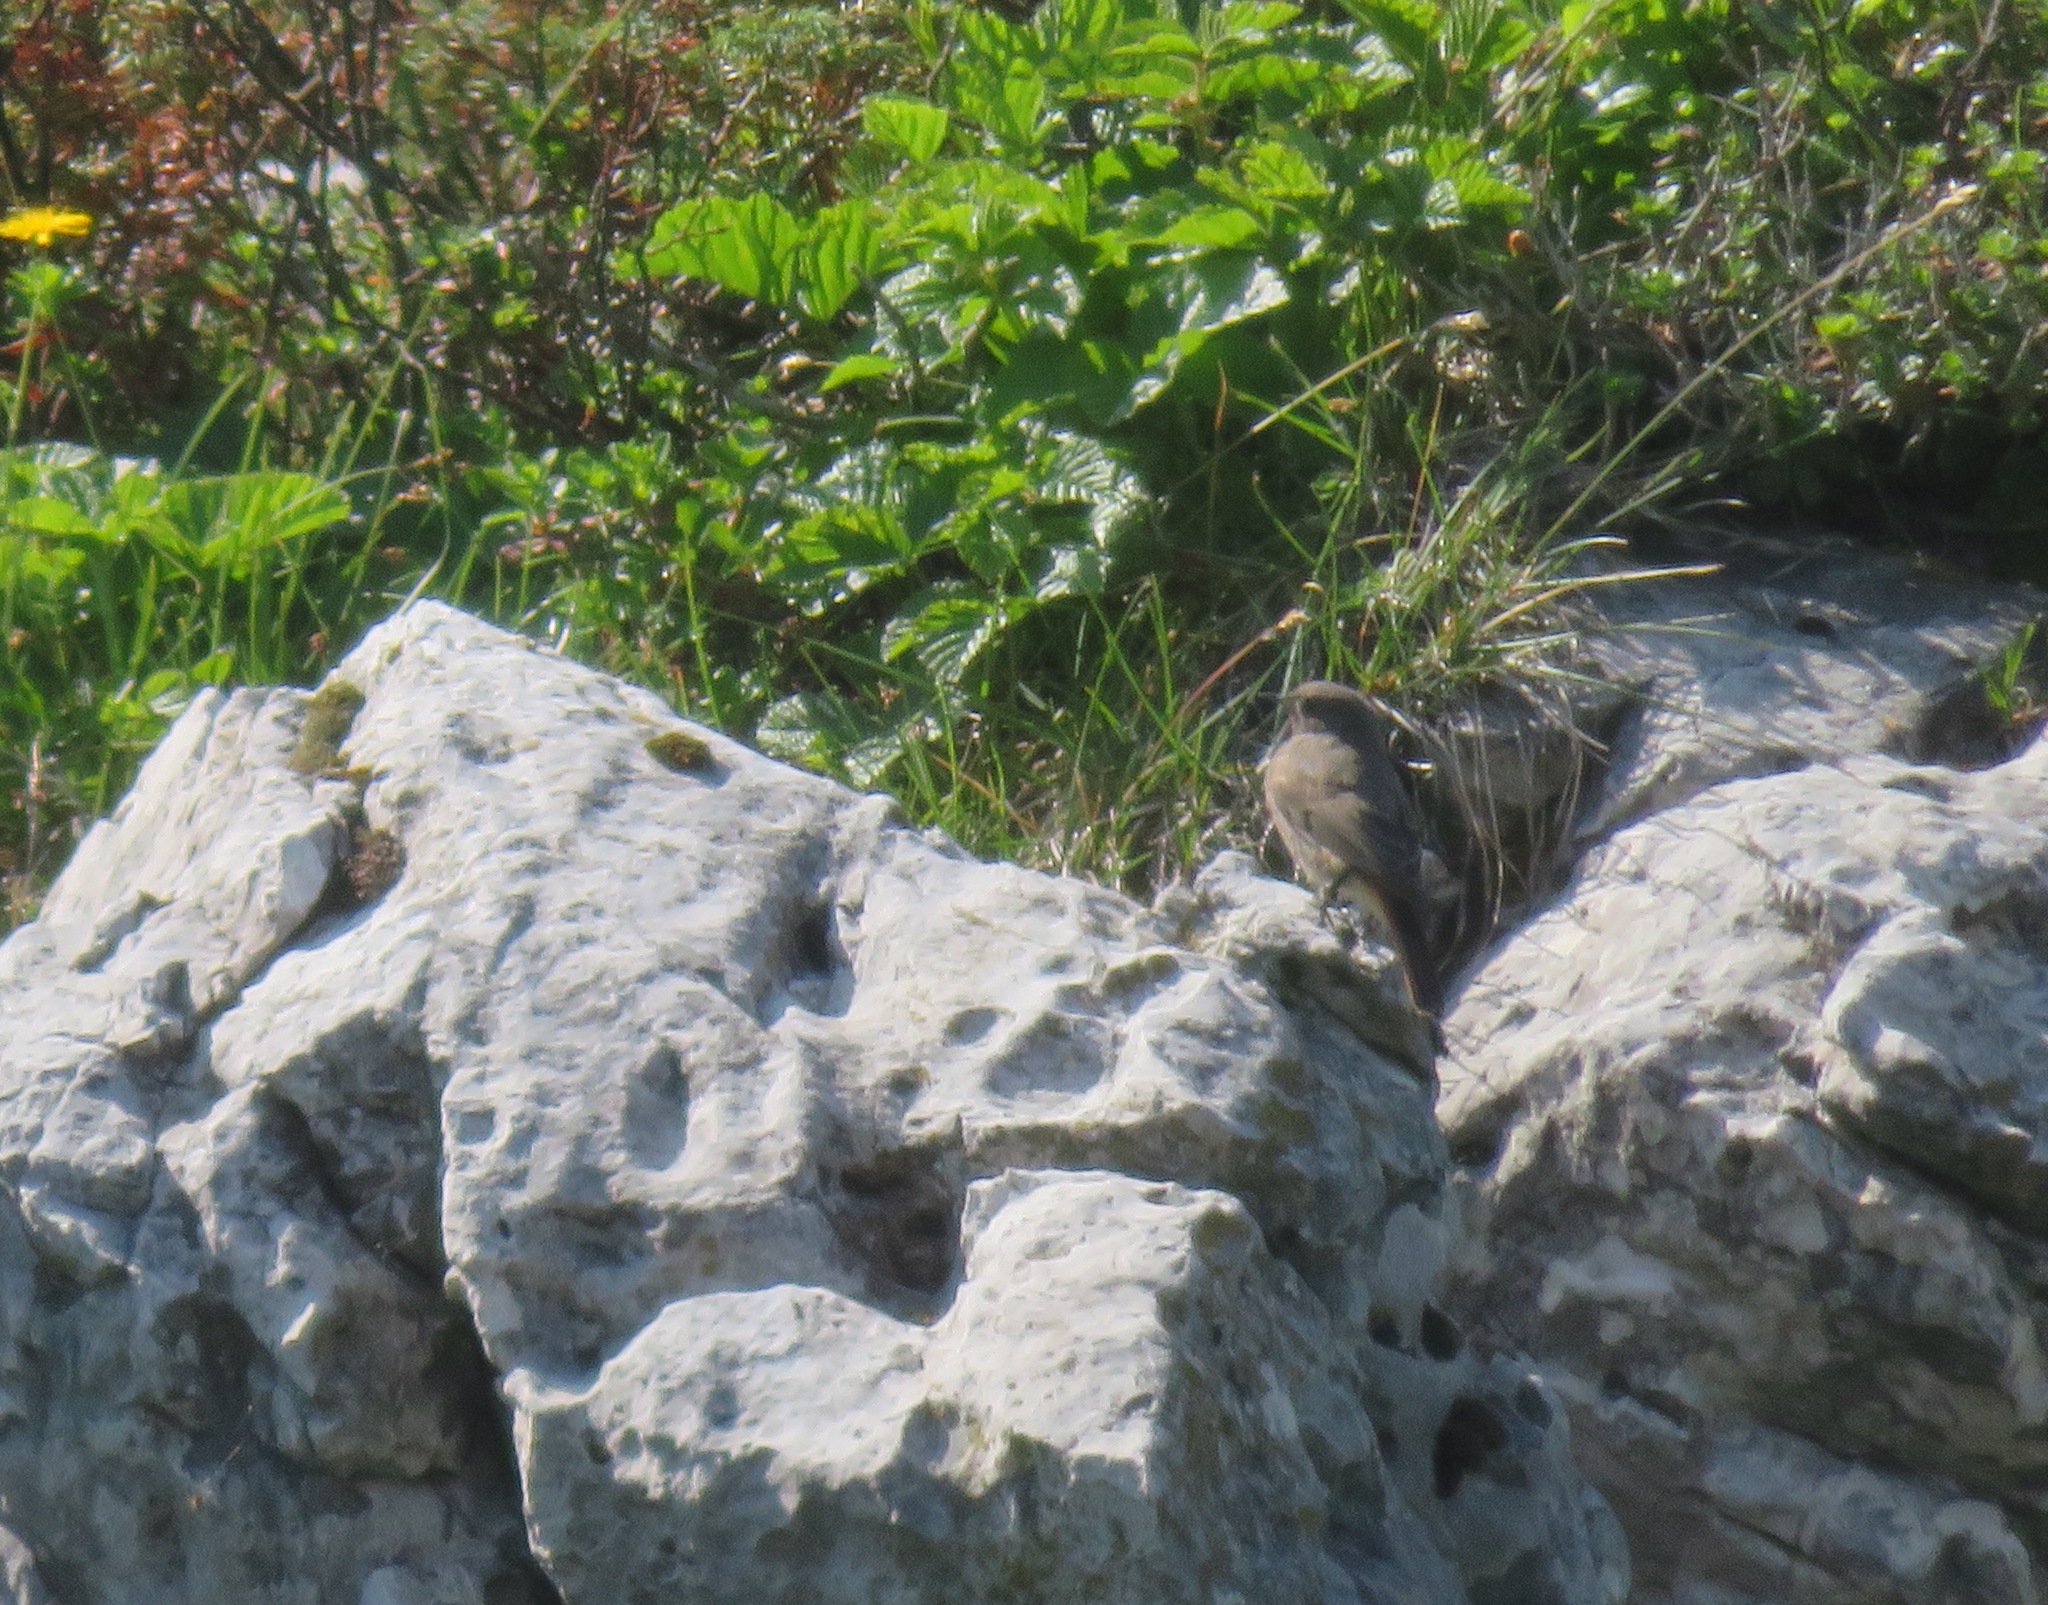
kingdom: Animalia
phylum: Chordata
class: Aves
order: Passeriformes
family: Muscicapidae
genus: Phoenicurus
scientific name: Phoenicurus ochruros
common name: Black redstart
